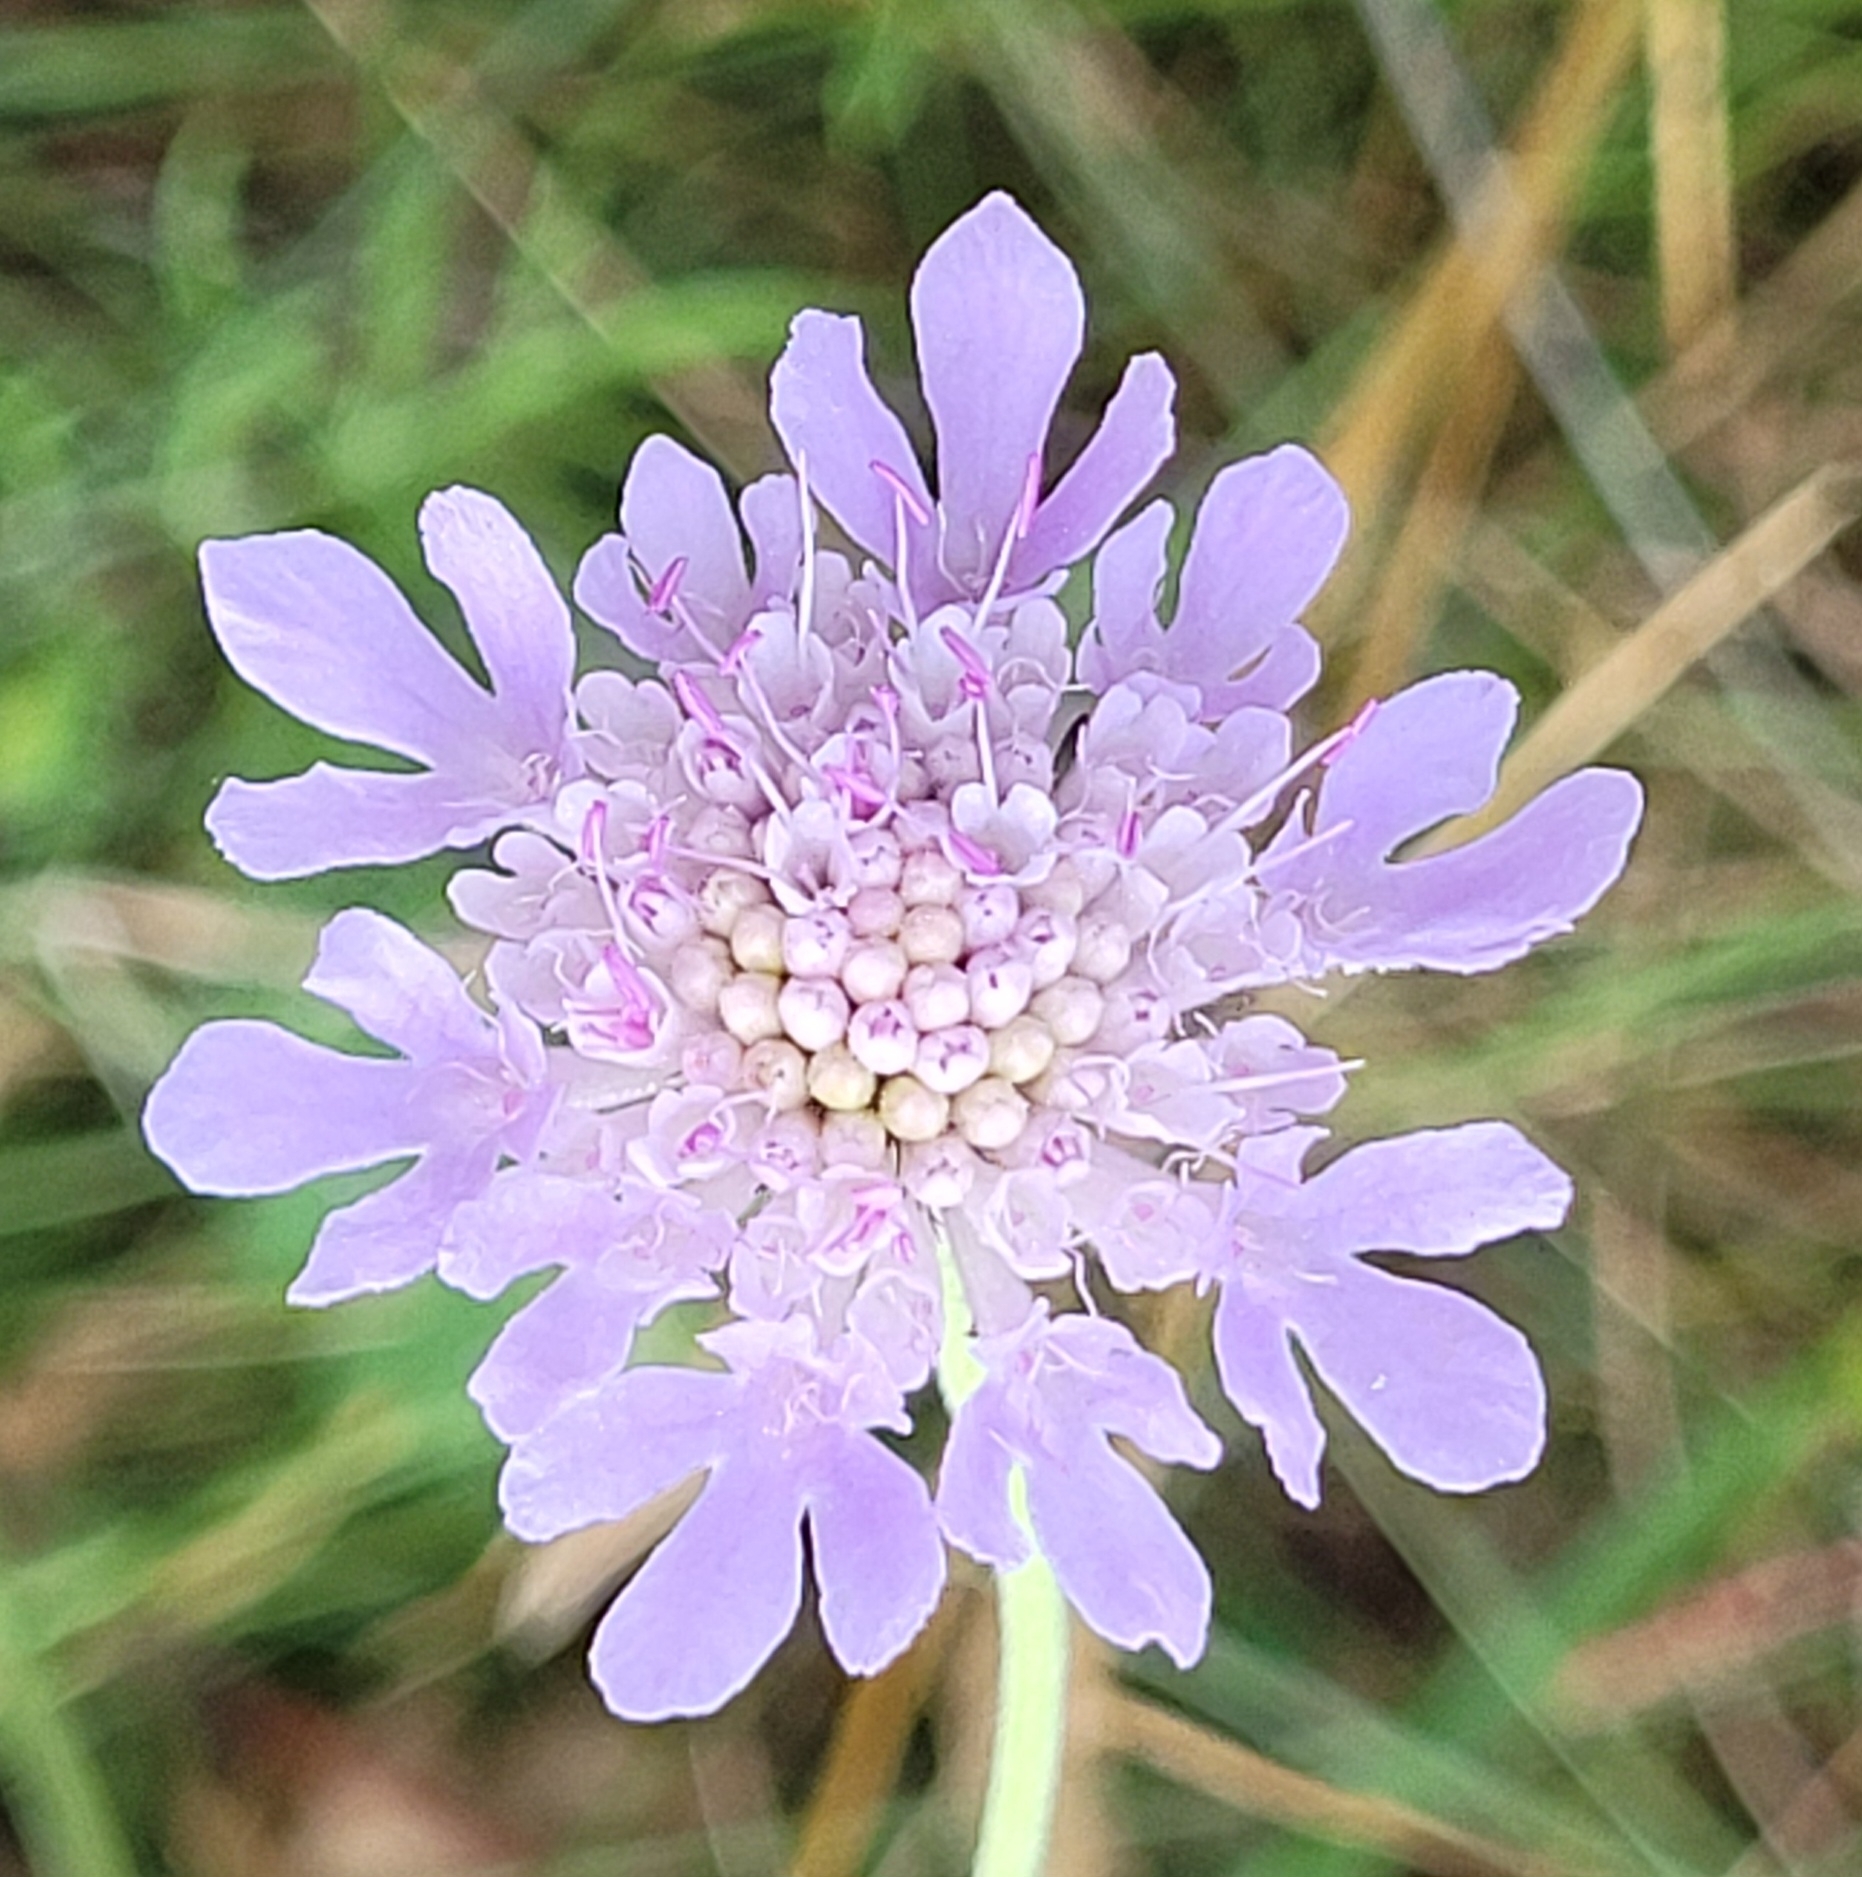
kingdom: Plantae
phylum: Tracheophyta
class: Magnoliopsida
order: Dipsacales
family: Caprifoliaceae
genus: Scabiosa
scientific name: Scabiosa columbaria
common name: Small scabious
